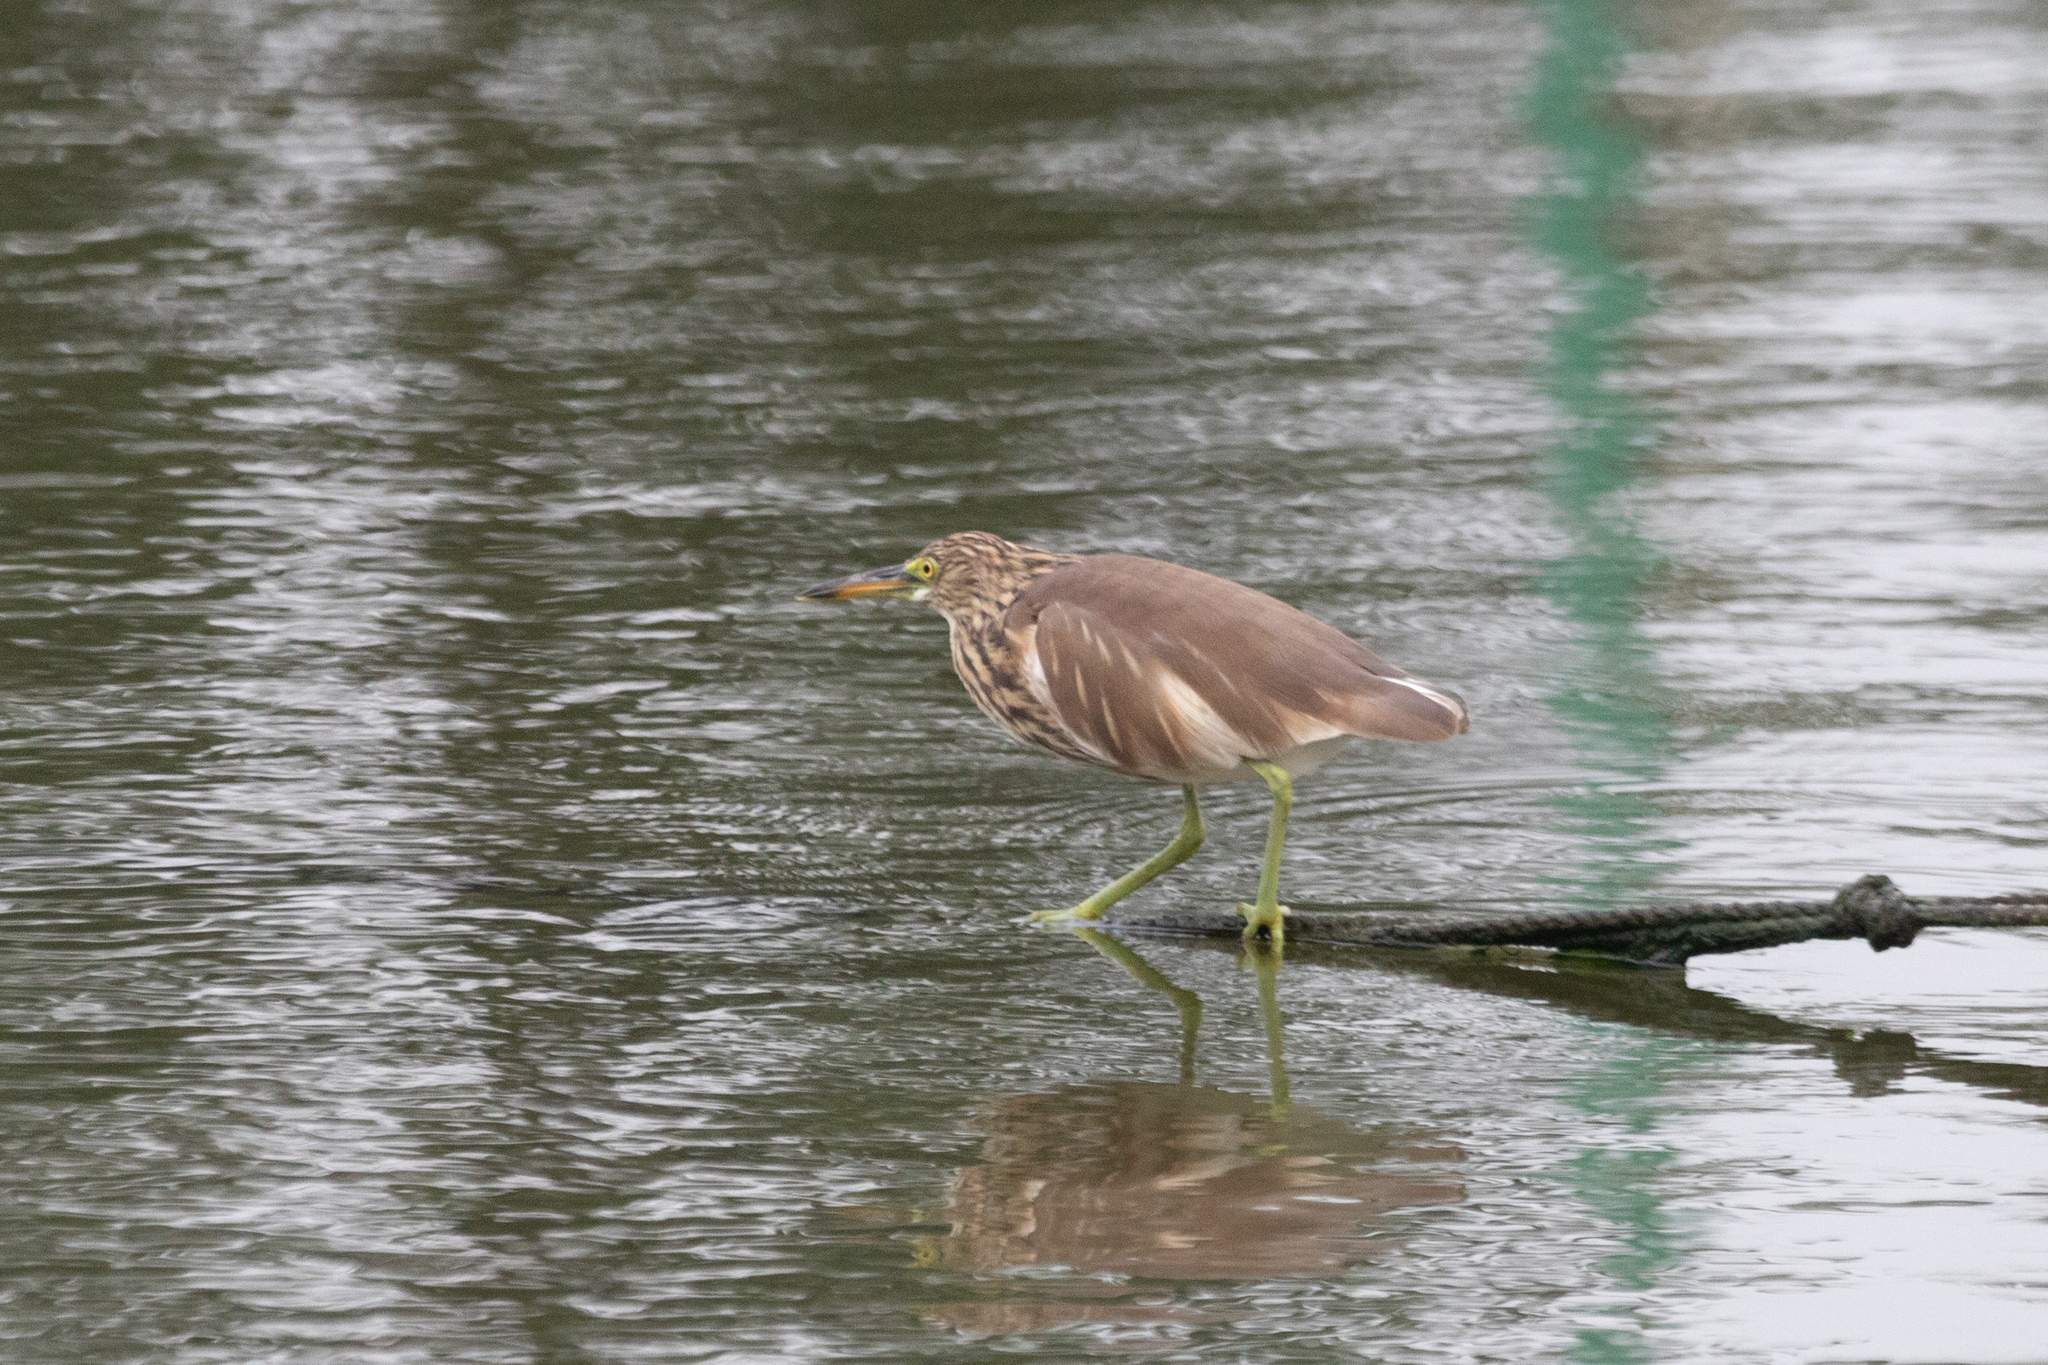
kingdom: Animalia
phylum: Chordata
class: Aves
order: Pelecaniformes
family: Ardeidae
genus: Ardeola
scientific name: Ardeola bacchus
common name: Chinese pond heron
